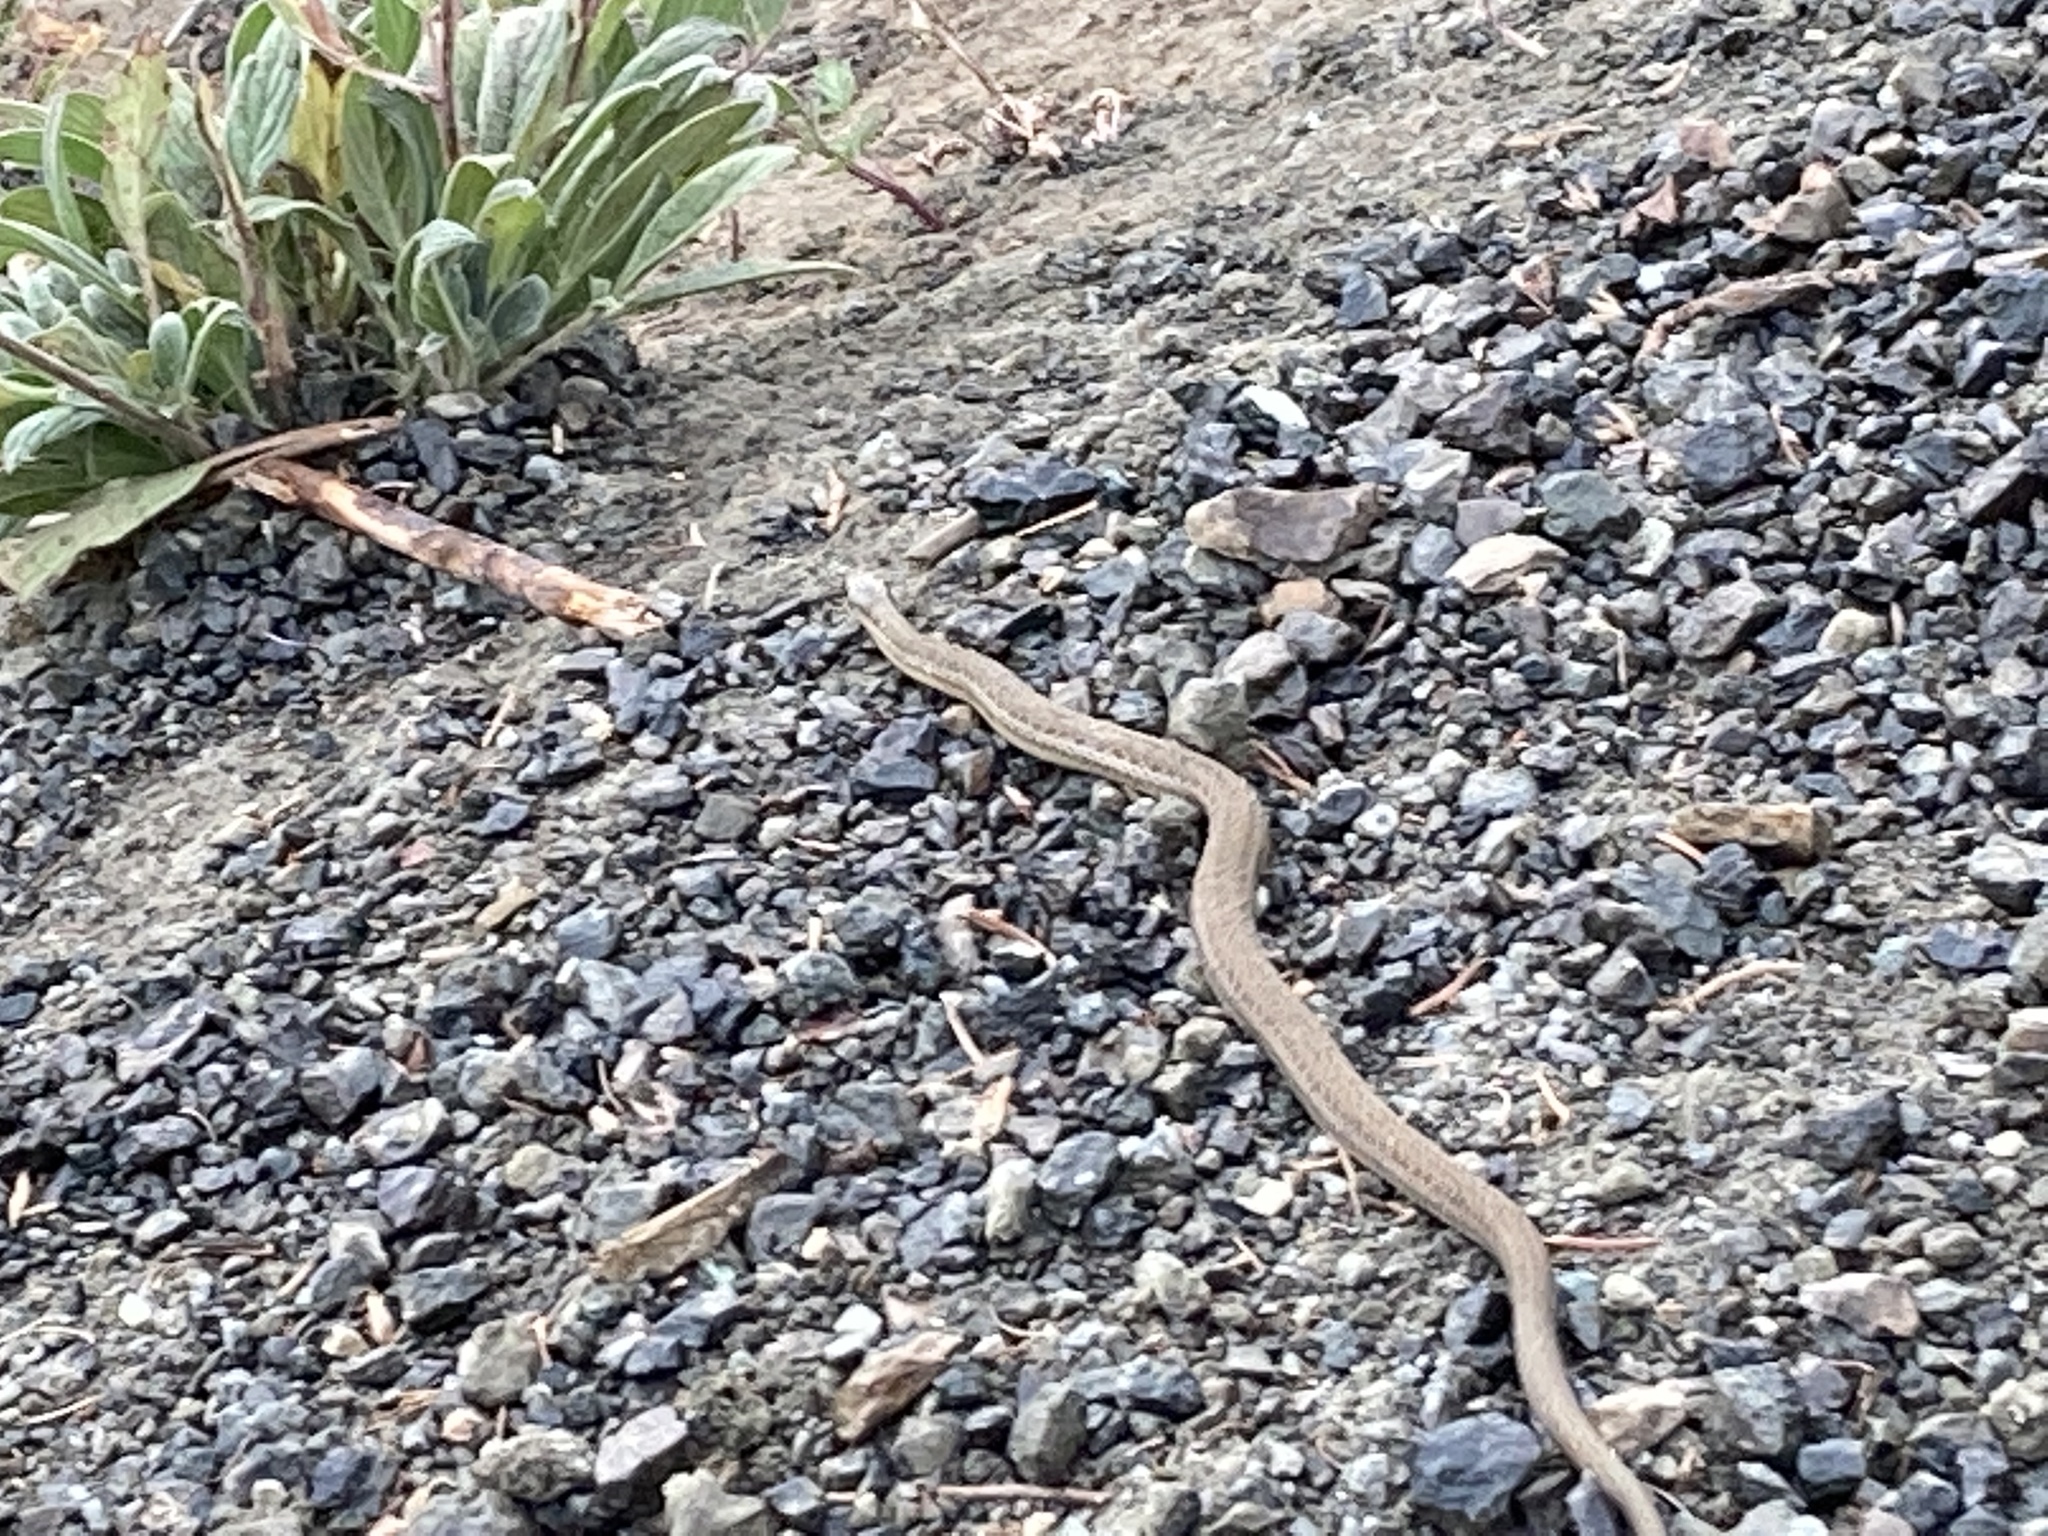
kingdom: Animalia
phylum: Chordata
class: Squamata
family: Colubridae
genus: Thamnophis
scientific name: Thamnophis ordinoides
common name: Northwestern garter snake
